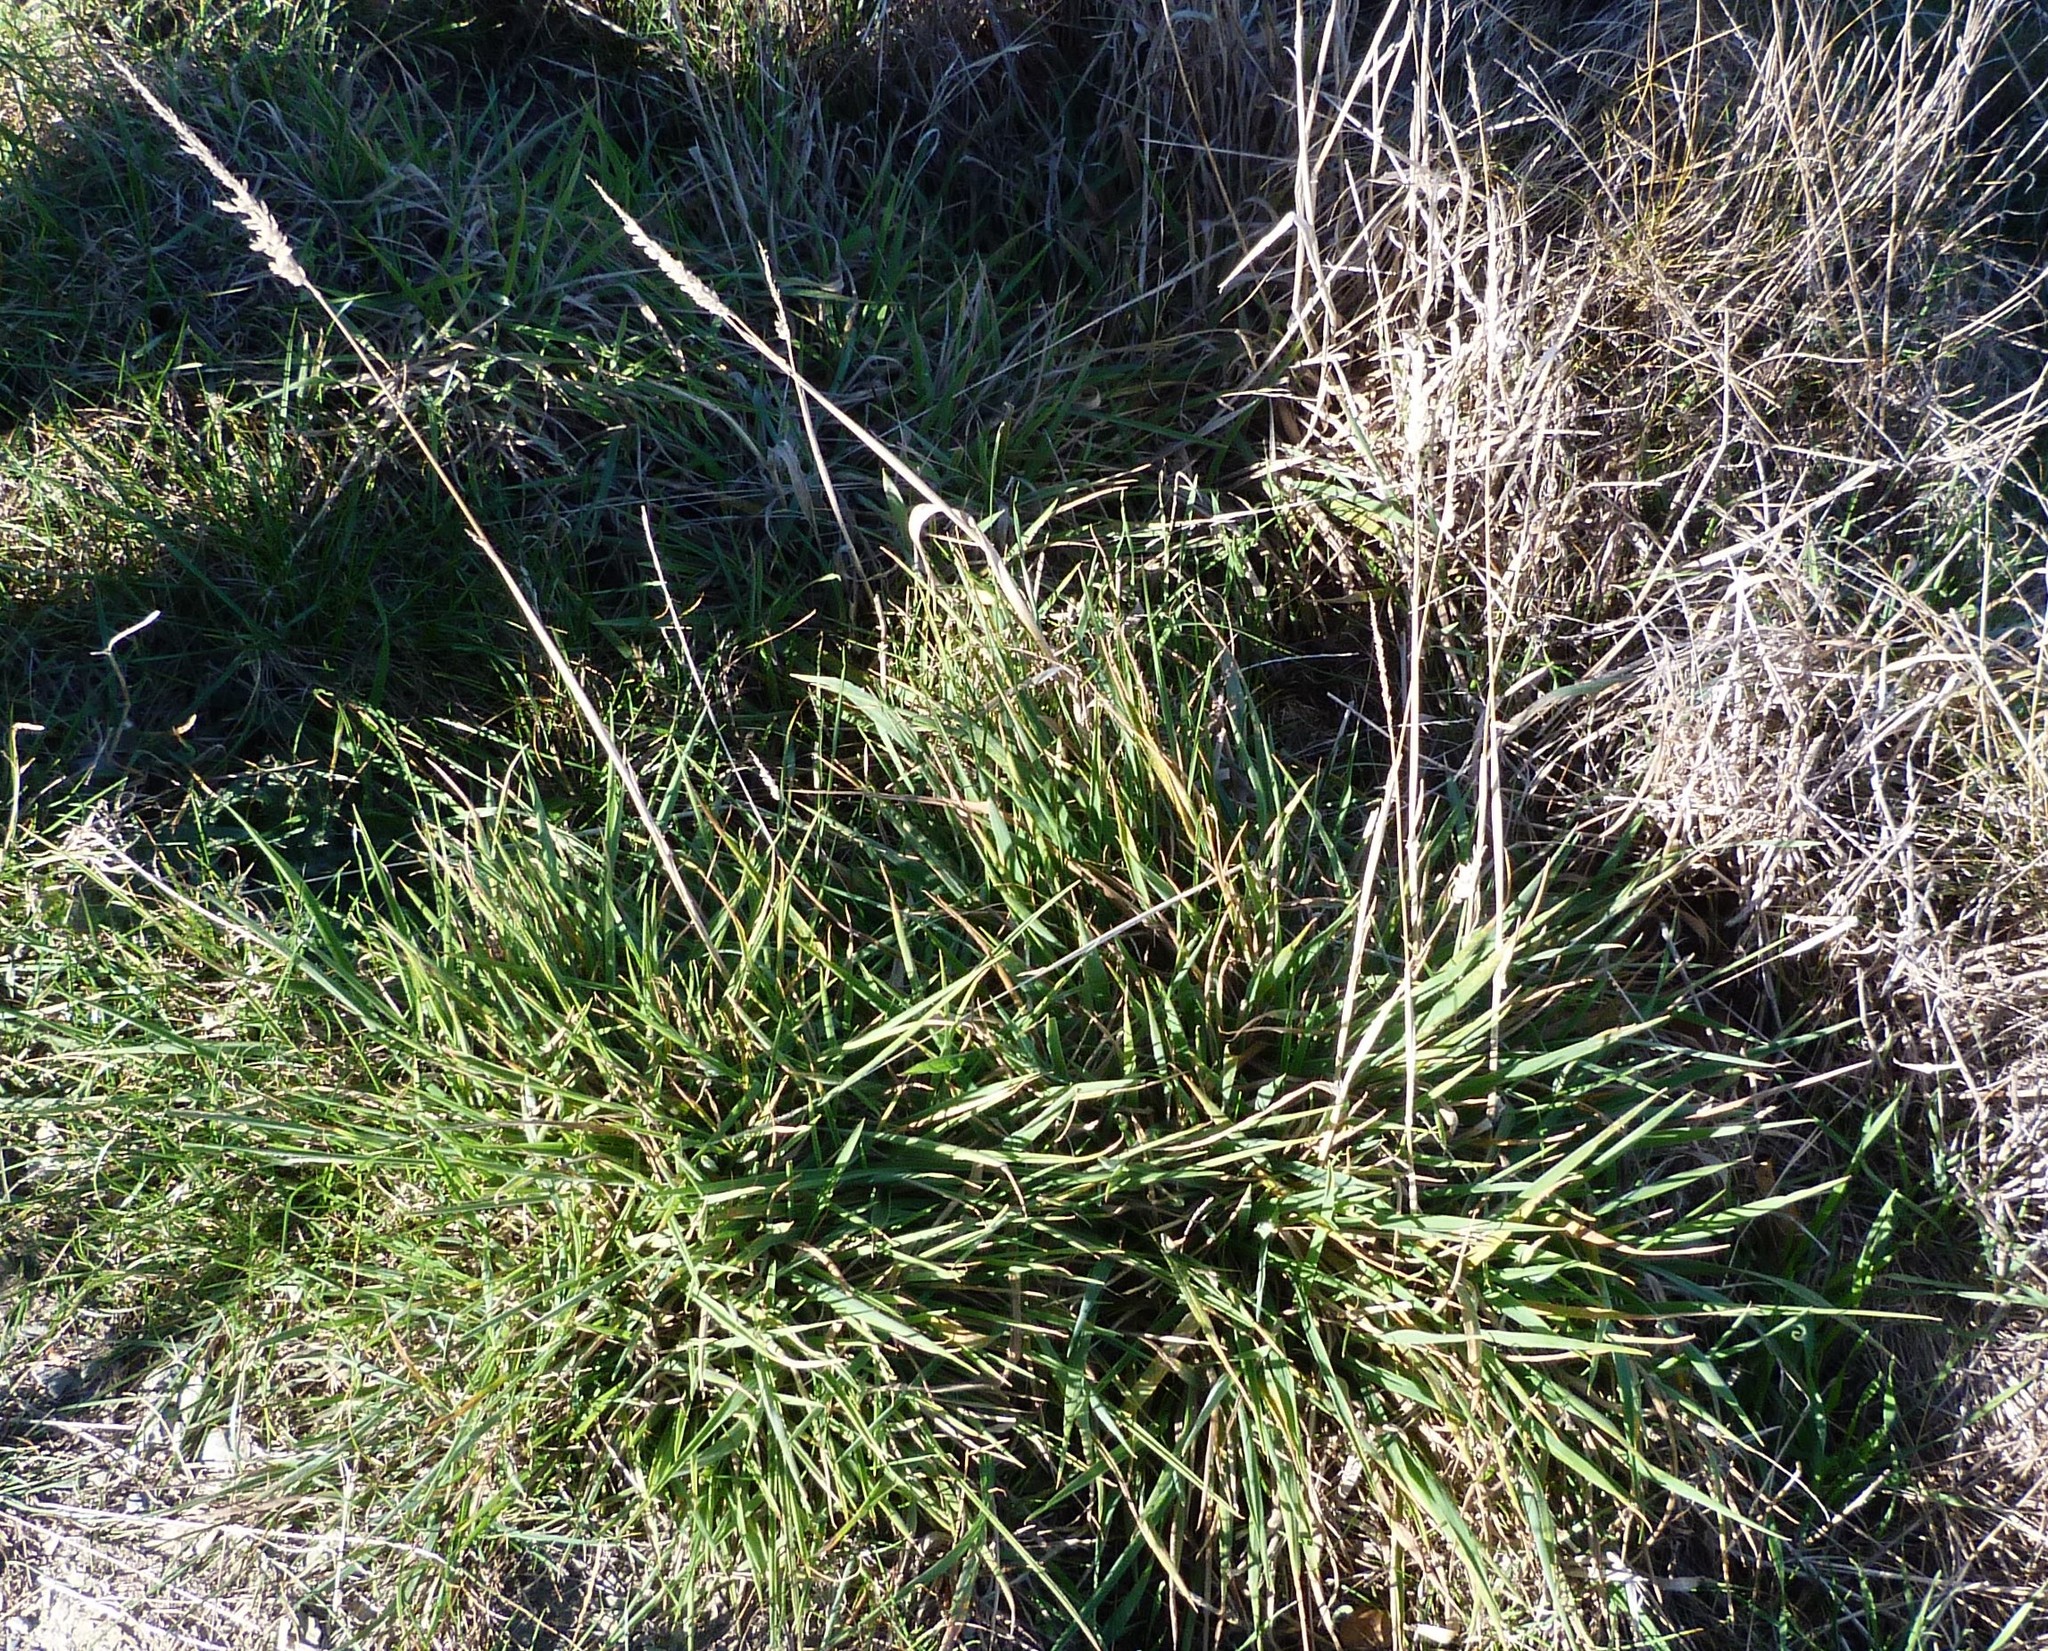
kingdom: Plantae
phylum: Tracheophyta
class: Liliopsida
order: Poales
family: Poaceae
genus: Holcus
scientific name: Holcus lanatus
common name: Yorkshire-fog
